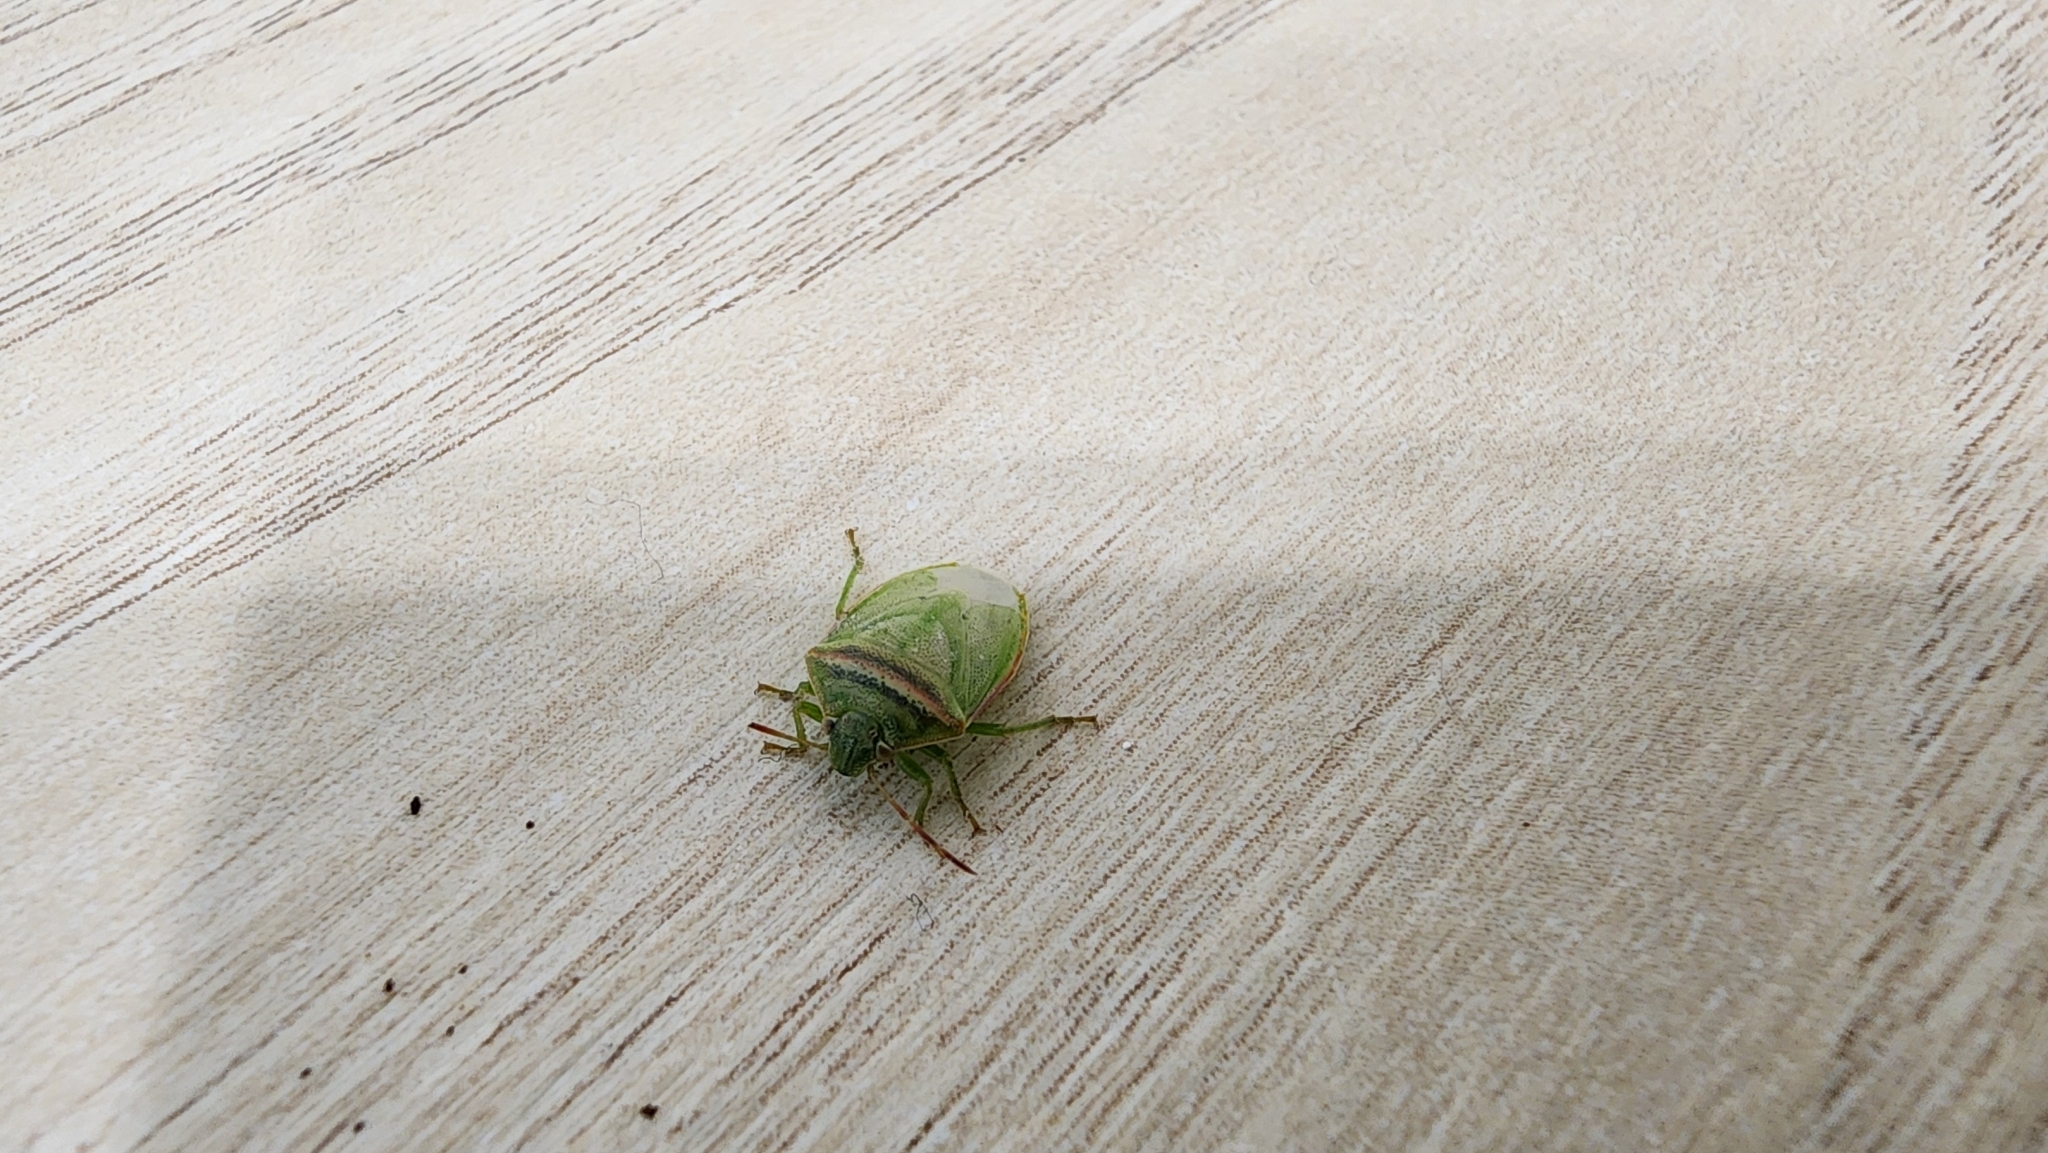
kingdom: Animalia
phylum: Arthropoda
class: Insecta
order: Hemiptera
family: Pentatomidae
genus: Piezodorus
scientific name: Piezodorus hybneri
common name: Stink bug
